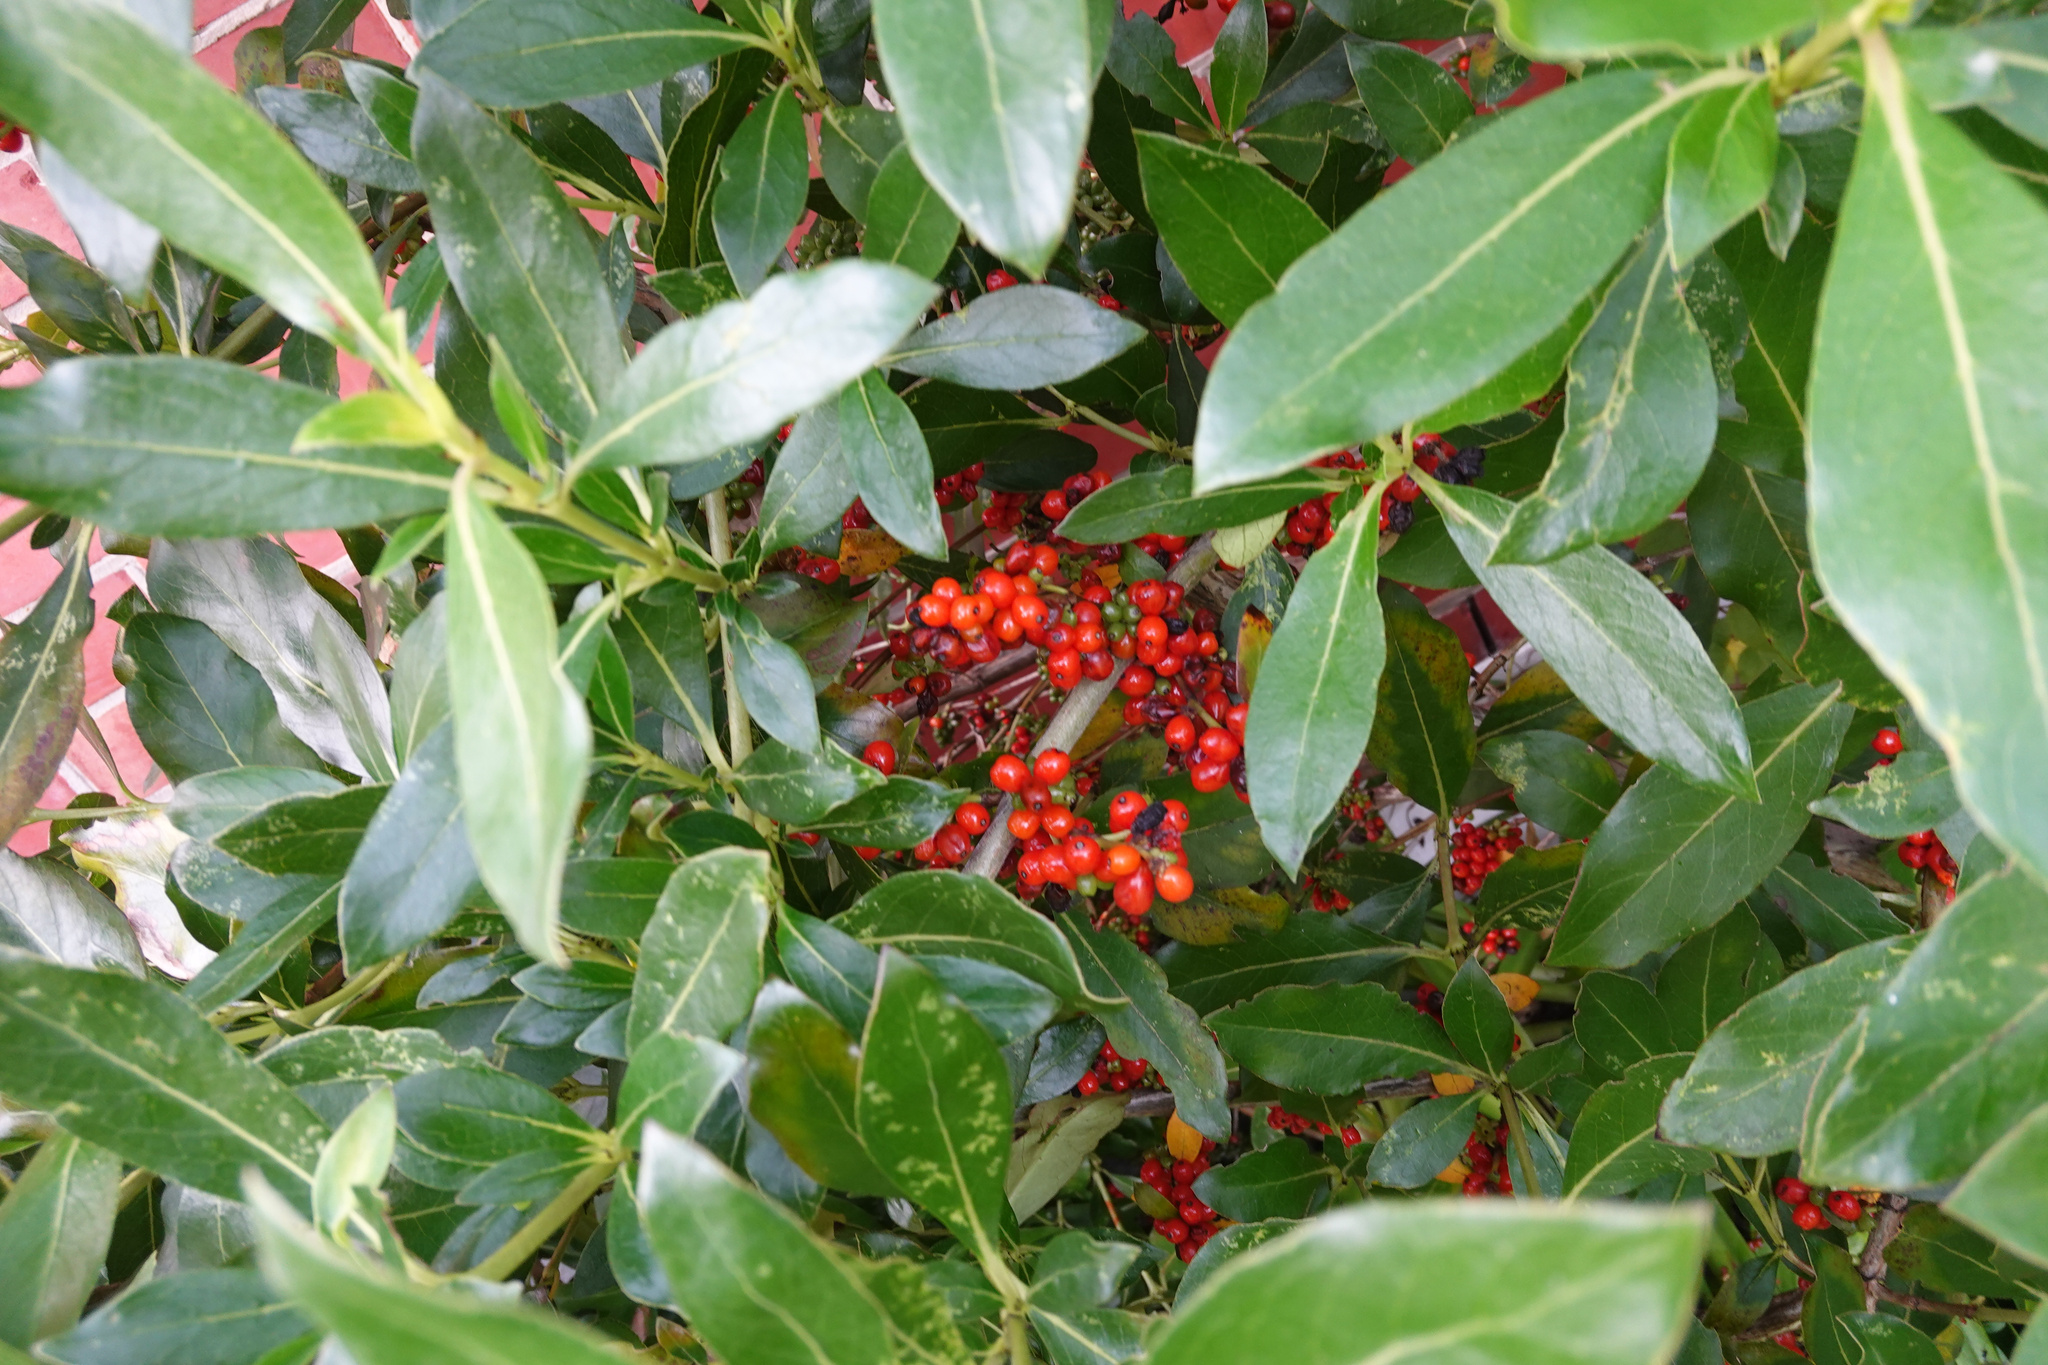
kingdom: Plantae
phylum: Tracheophyta
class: Magnoliopsida
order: Gentianales
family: Rubiaceae
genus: Coprosma
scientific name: Coprosma robusta
